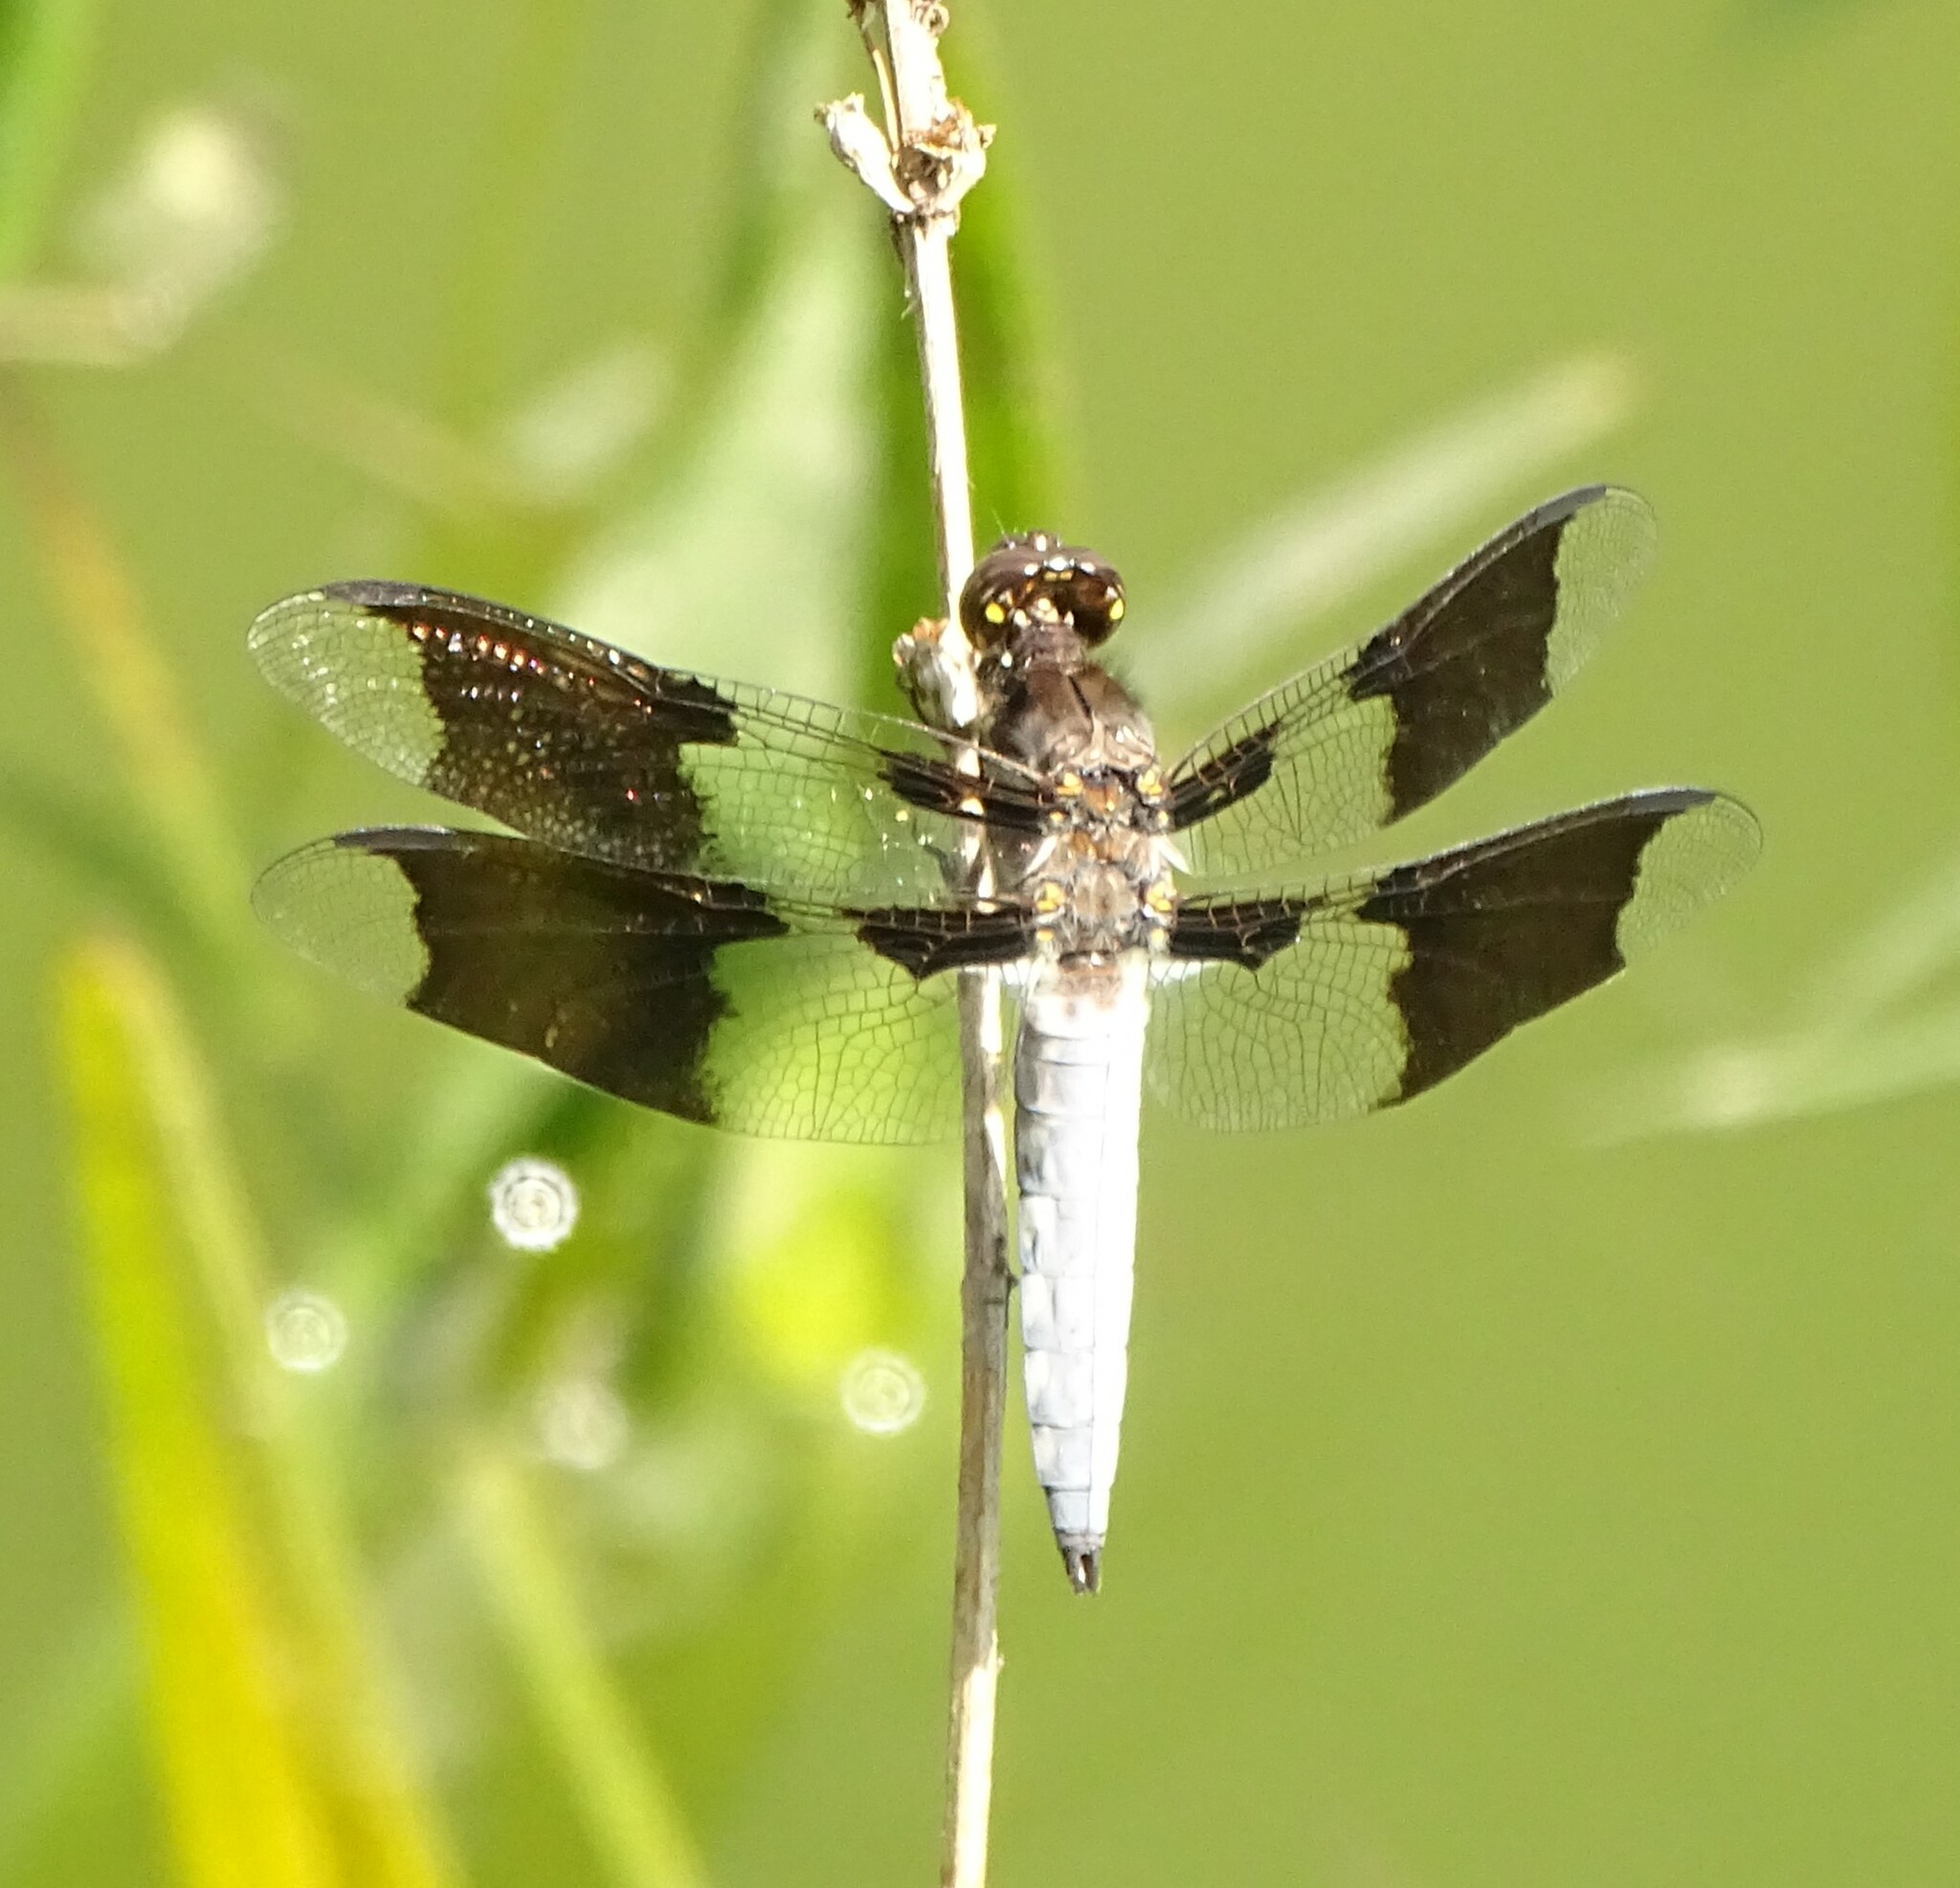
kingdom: Animalia
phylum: Arthropoda
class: Insecta
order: Odonata
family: Libellulidae
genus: Plathemis
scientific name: Plathemis lydia
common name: Common whitetail
